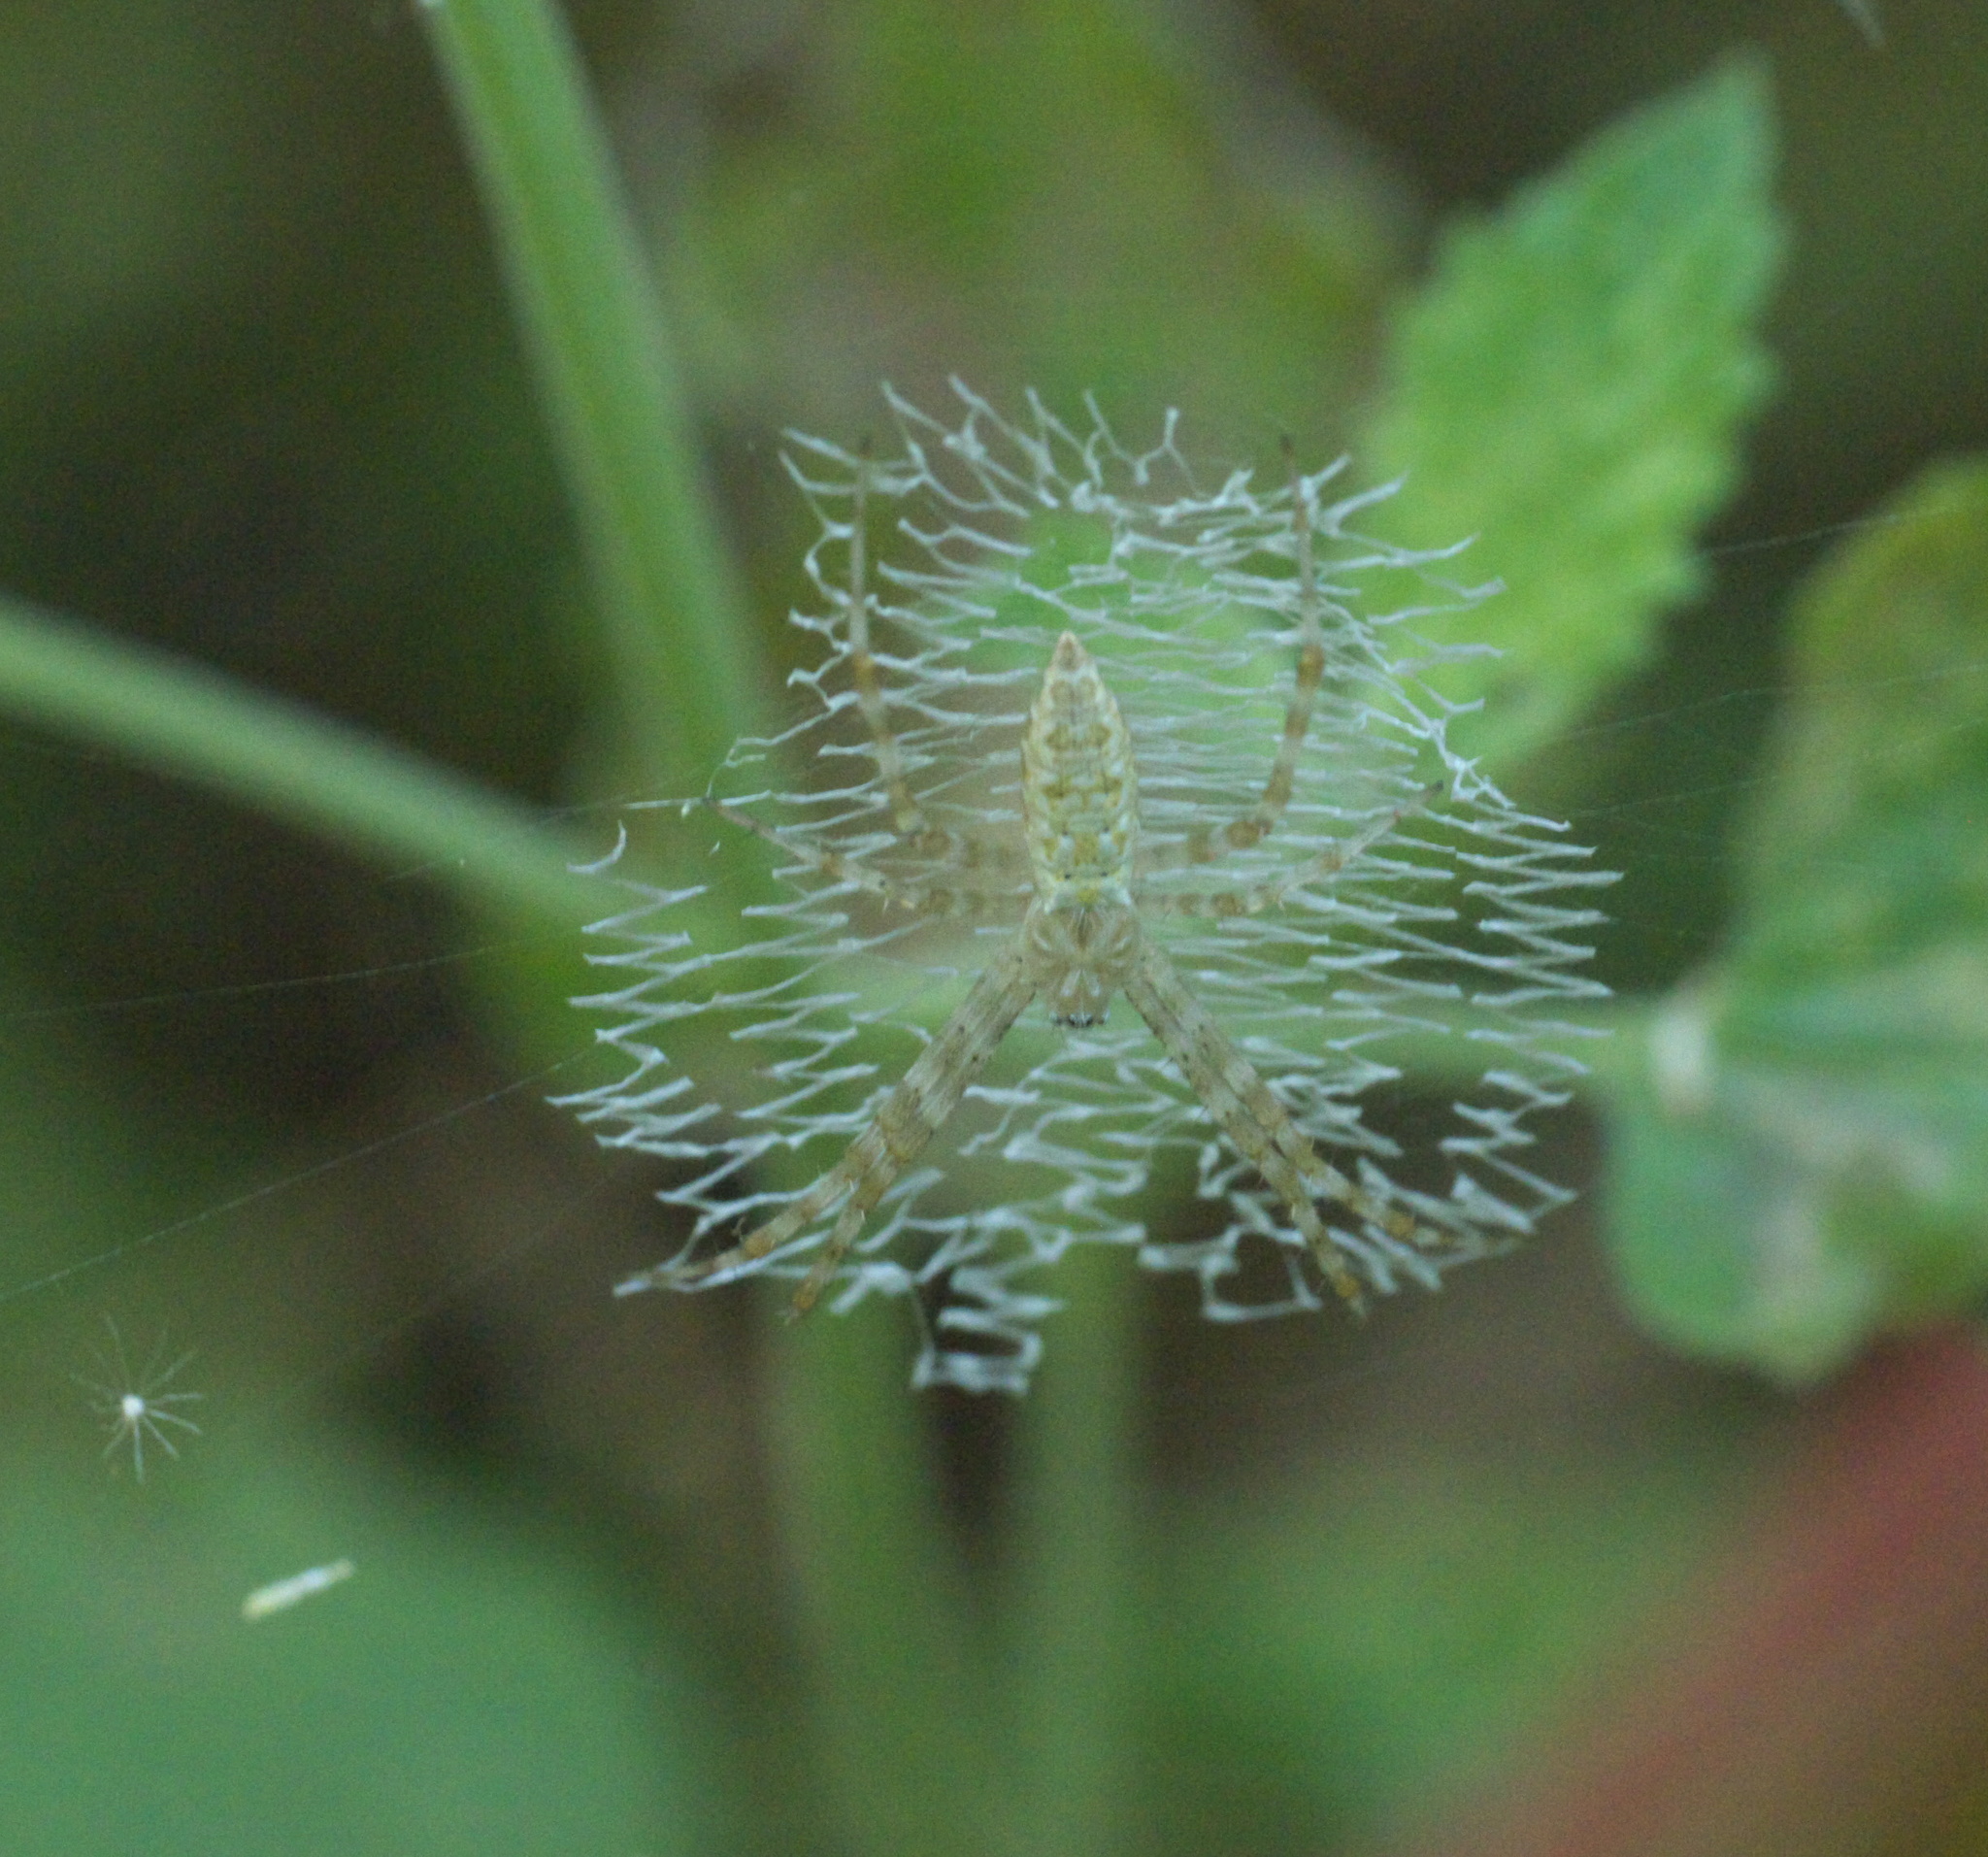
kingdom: Animalia
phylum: Arthropoda
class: Arachnida
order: Araneae
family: Araneidae
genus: Argiope
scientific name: Argiope aurantia
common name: Orb weavers
